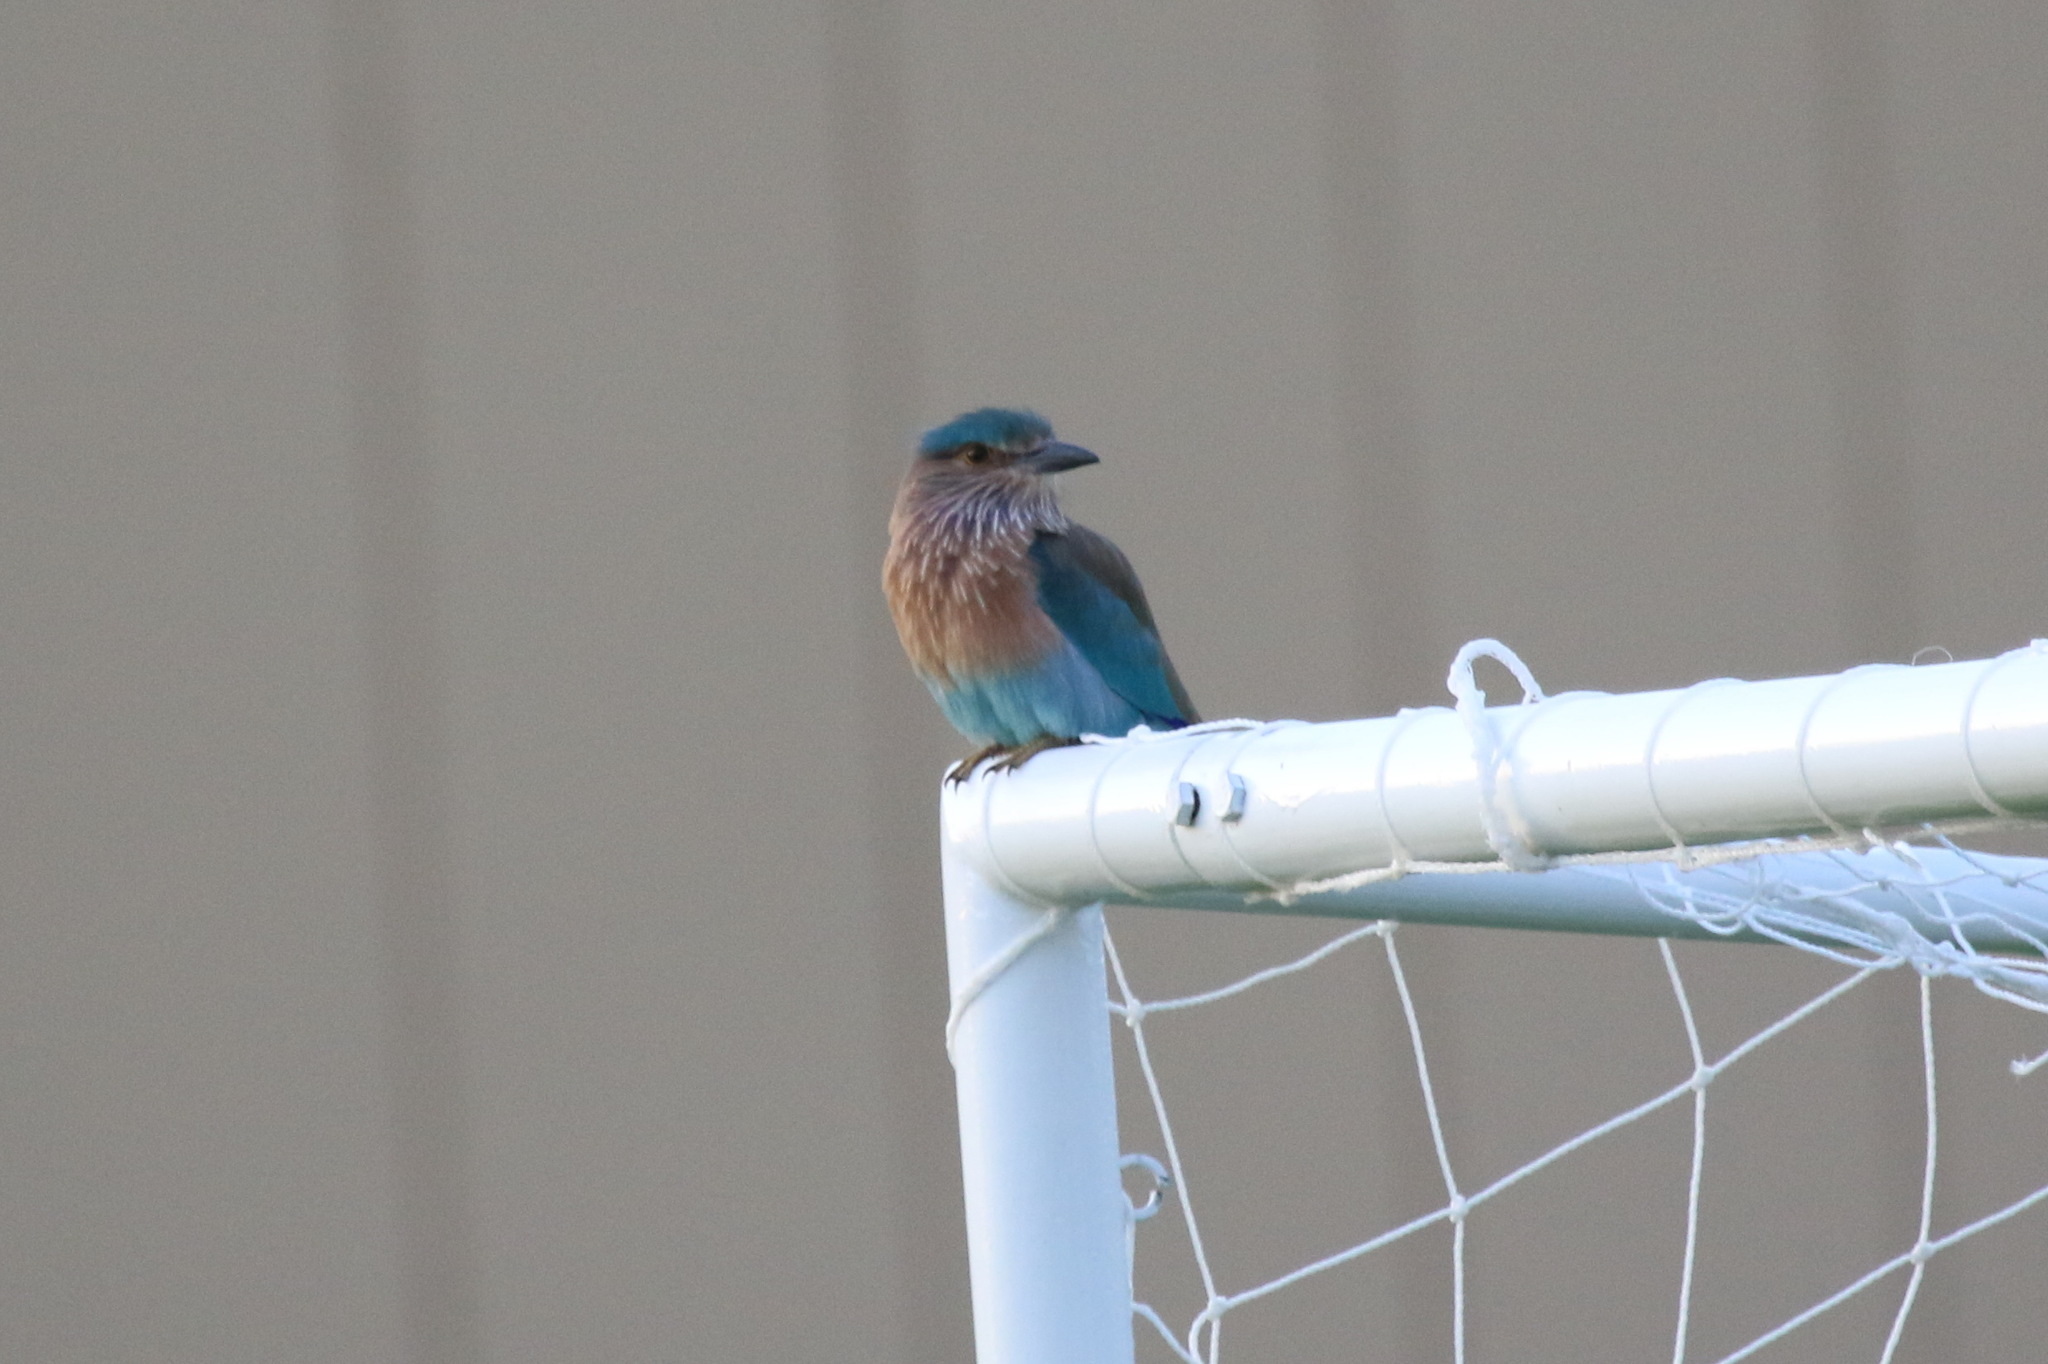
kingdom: Animalia
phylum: Chordata
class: Aves
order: Coraciiformes
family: Coraciidae
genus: Coracias
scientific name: Coracias benghalensis
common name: Indian roller
